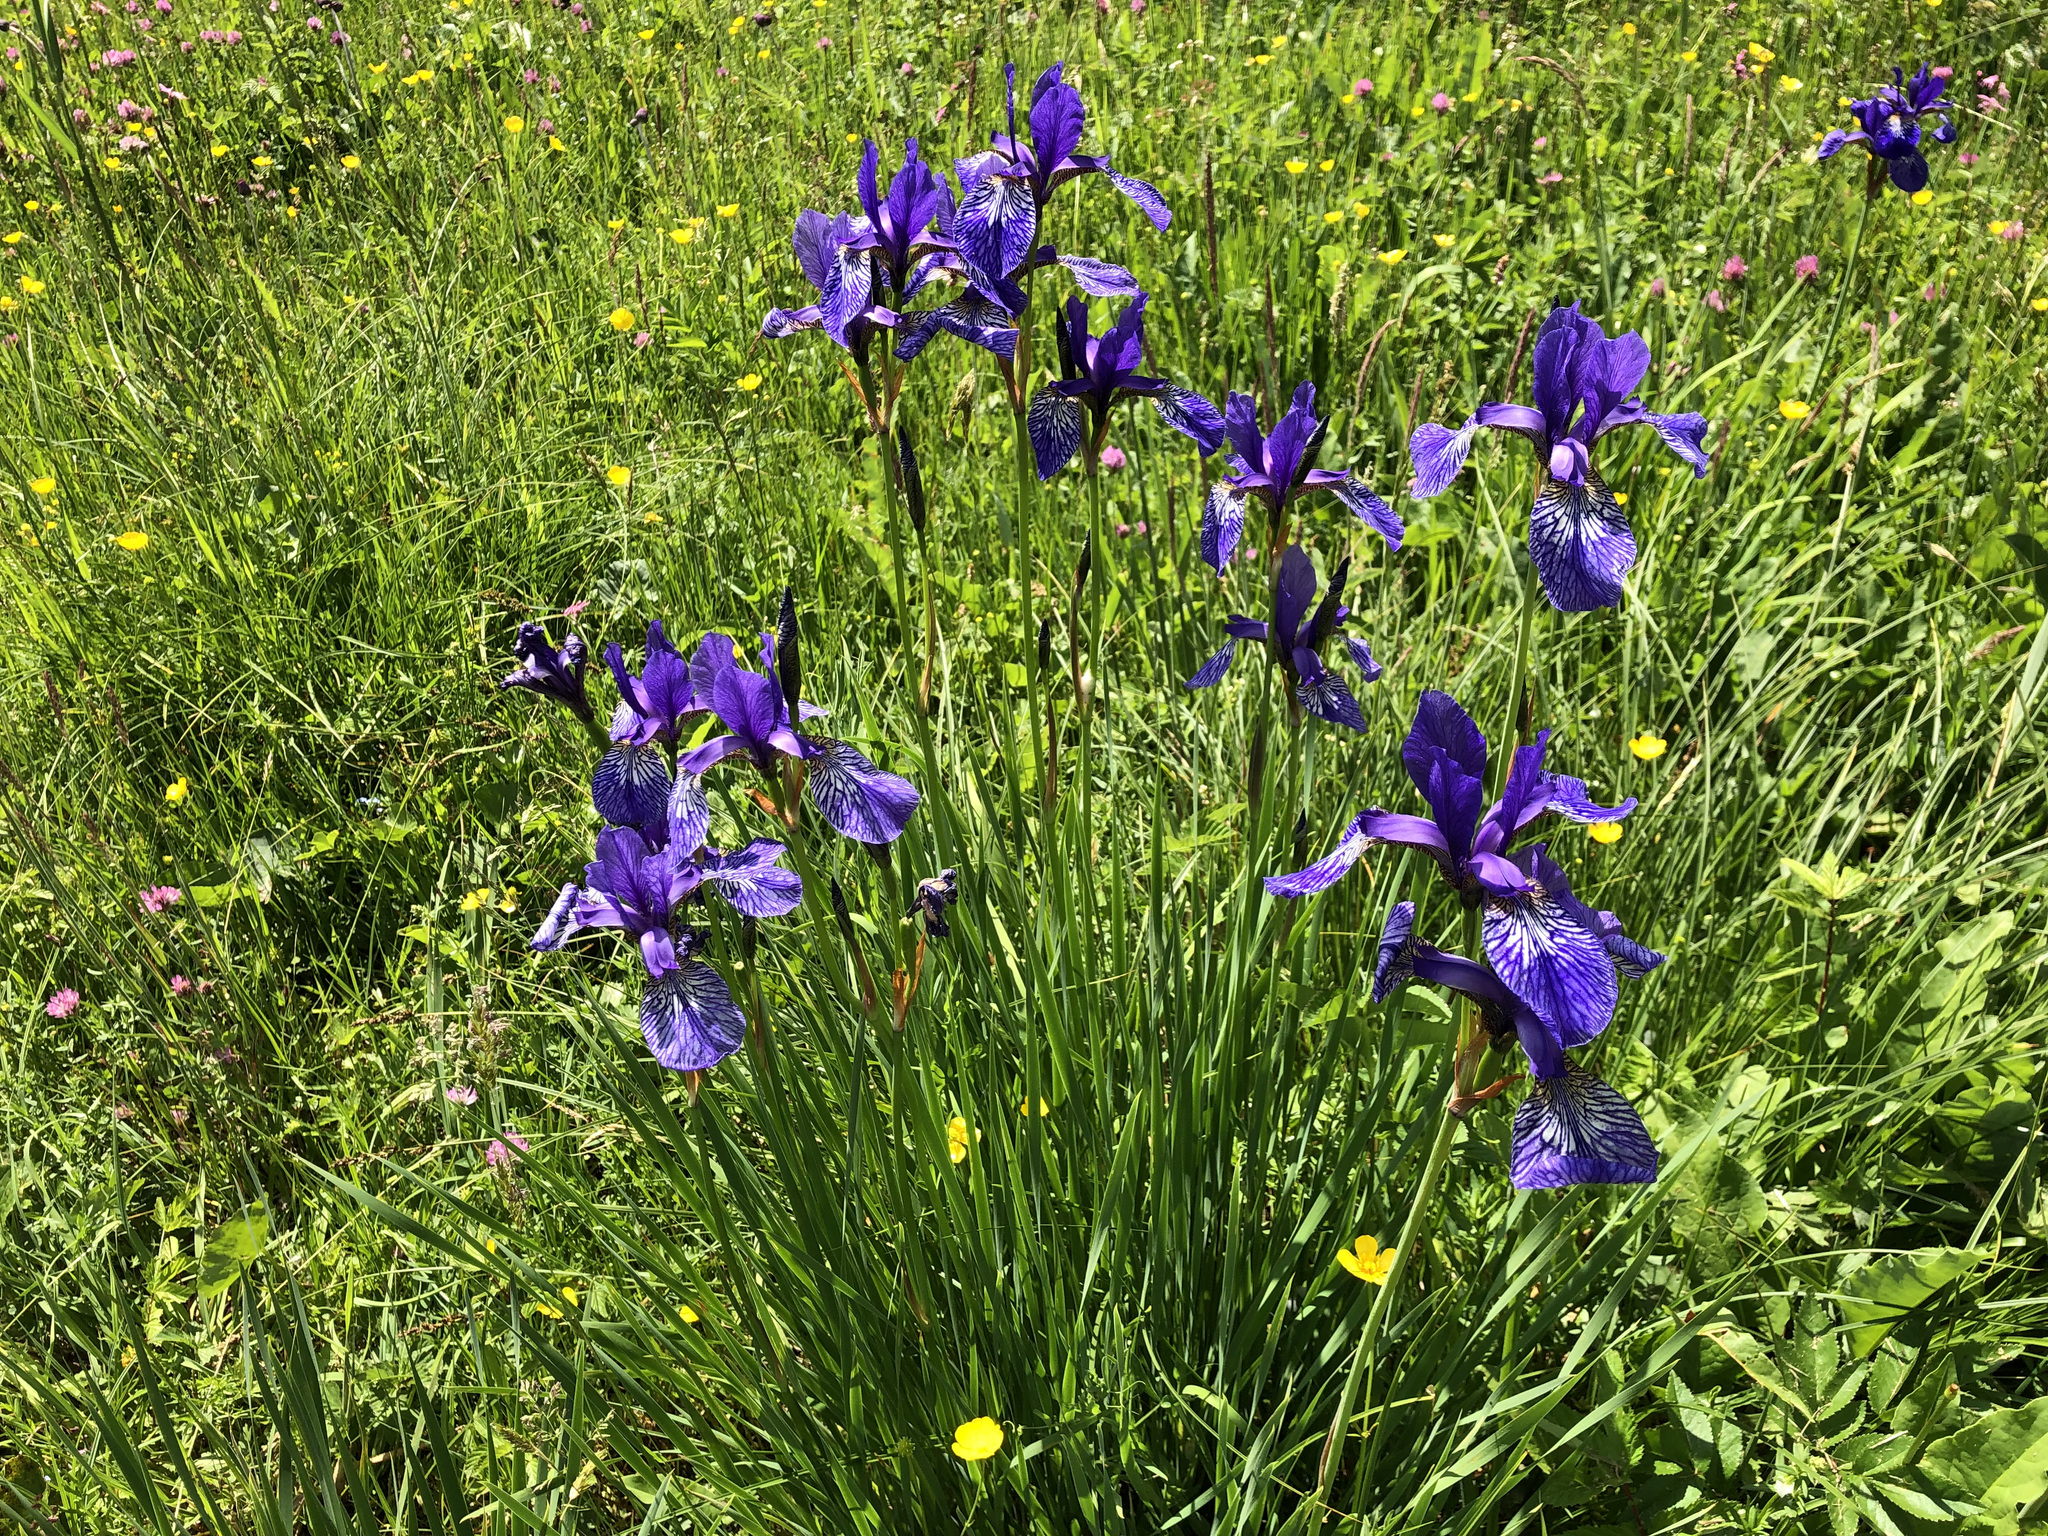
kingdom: Plantae
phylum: Tracheophyta
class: Liliopsida
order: Asparagales
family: Iridaceae
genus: Iris
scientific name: Iris sibirica
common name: Siberian iris
